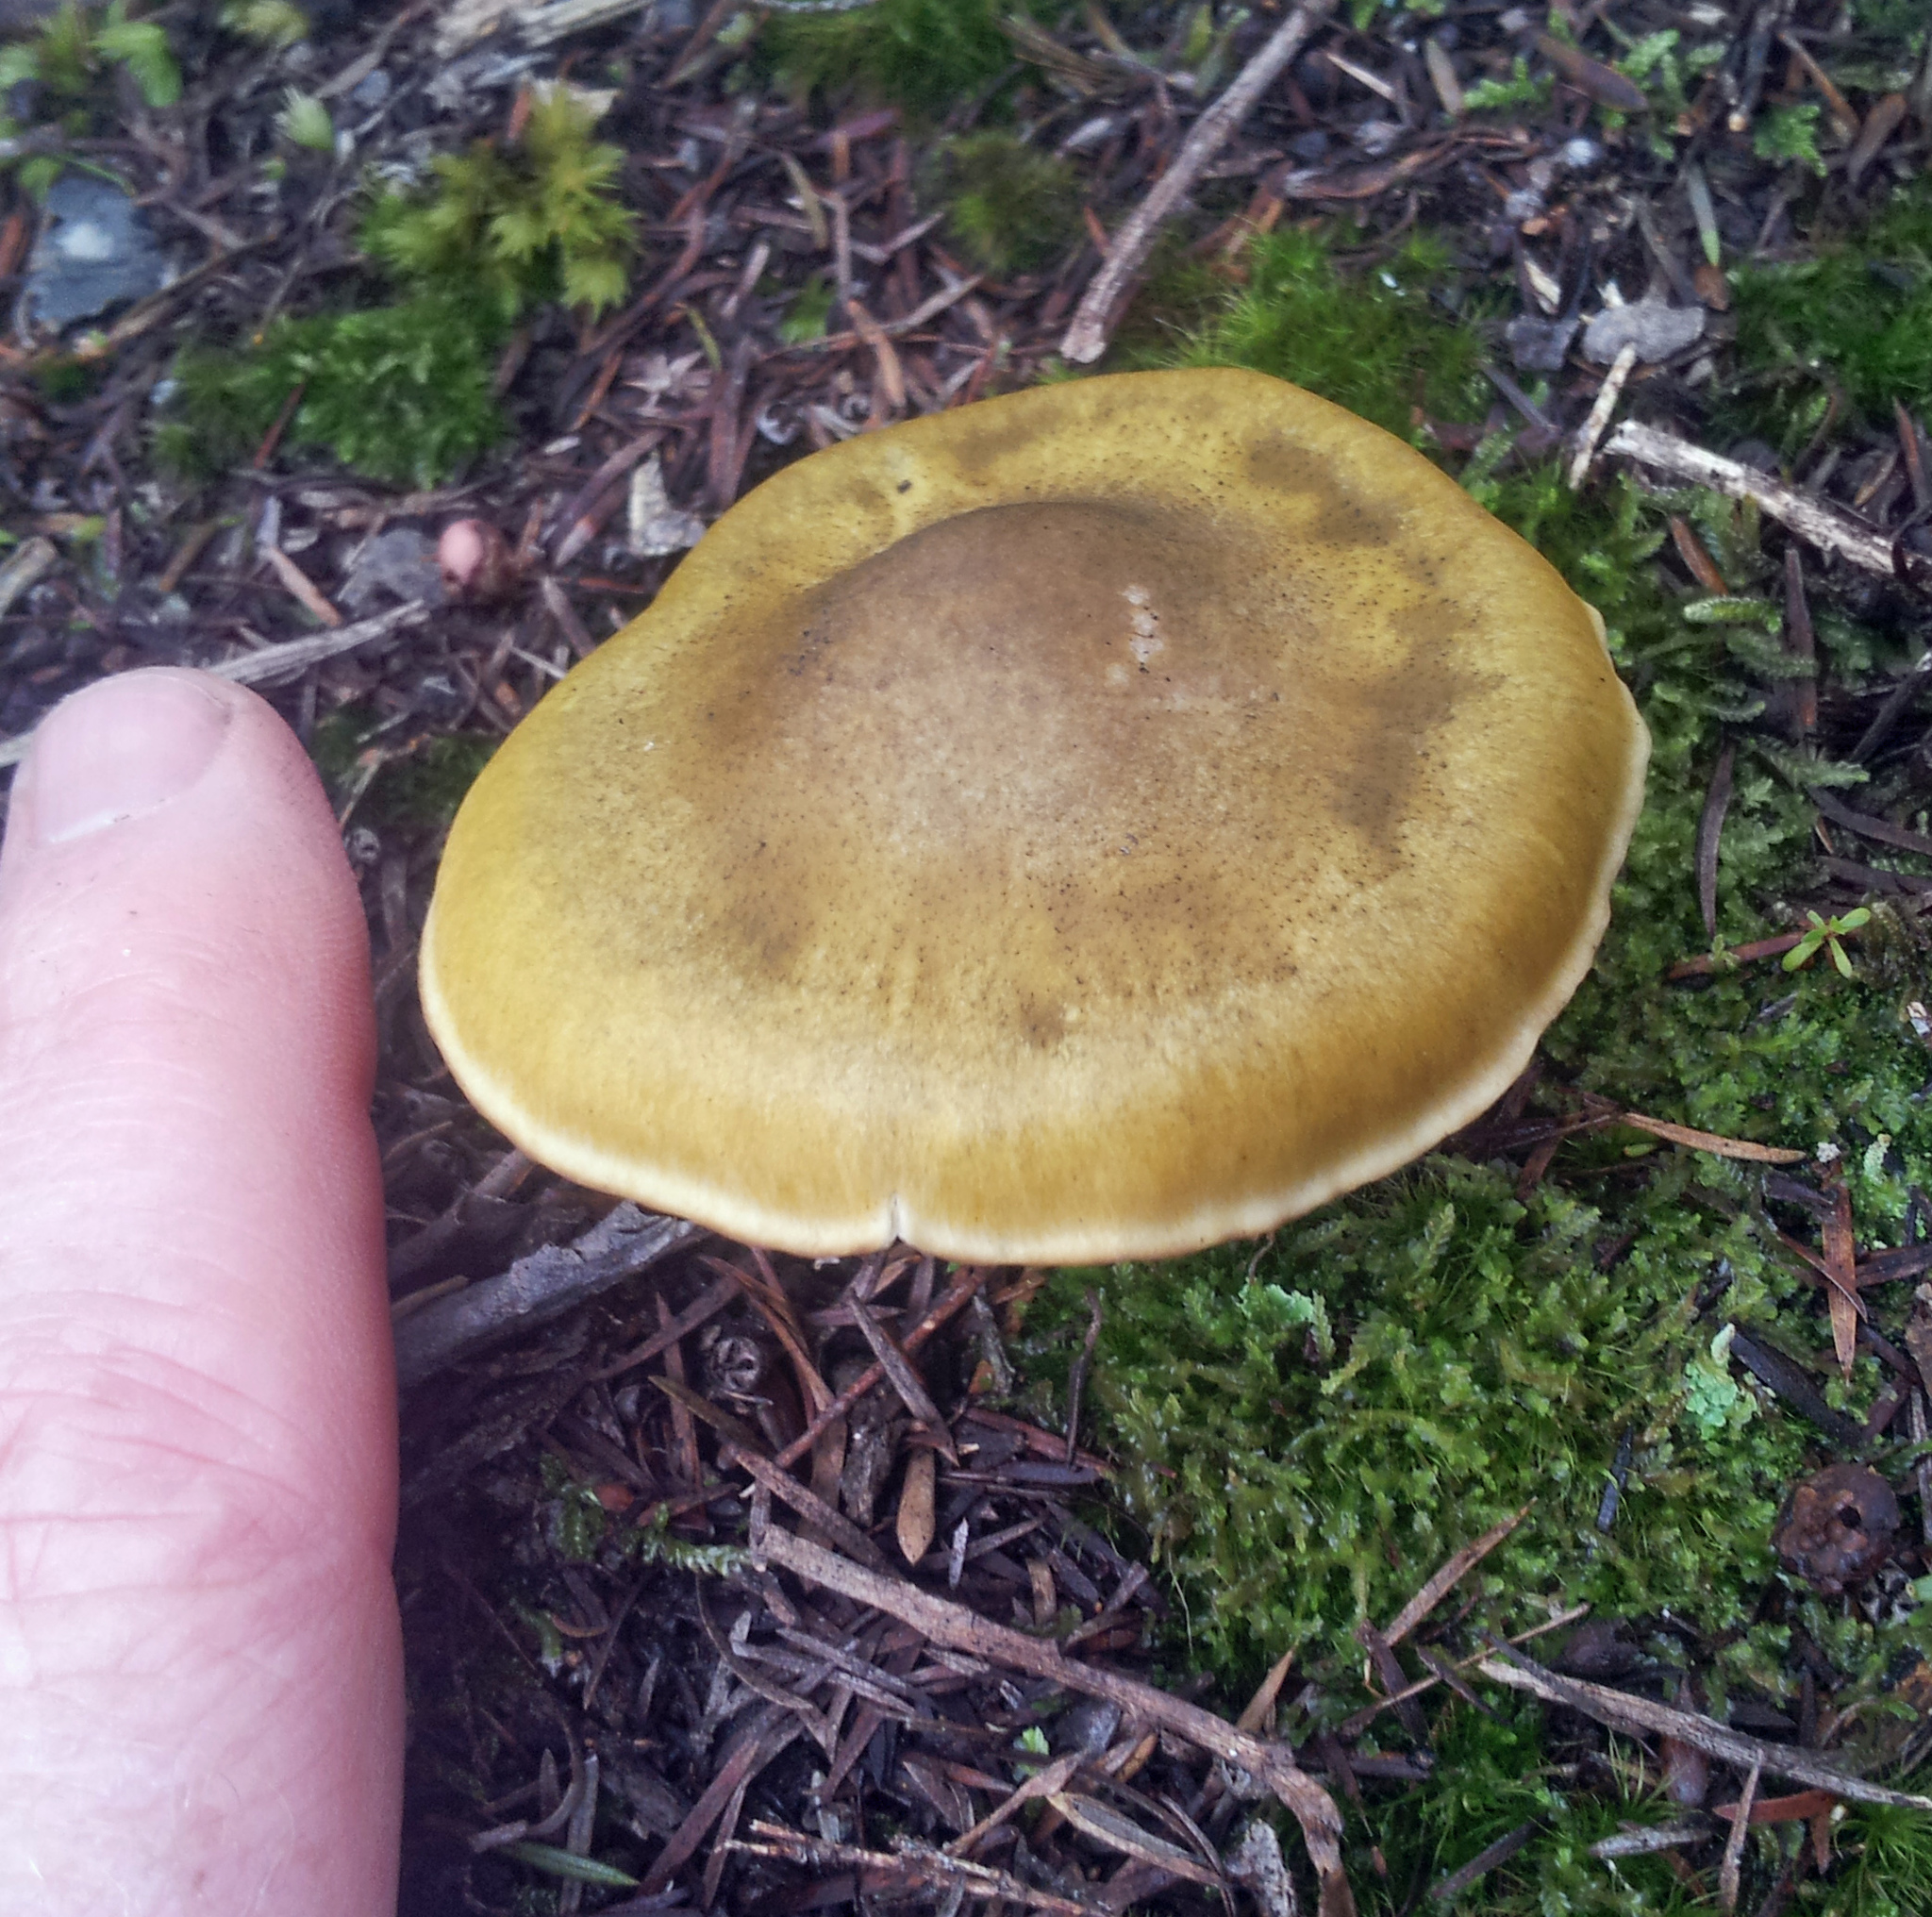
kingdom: Fungi
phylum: Basidiomycota
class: Agaricomycetes
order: Agaricales
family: Tricholomataceae
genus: Tricholoma
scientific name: Tricholoma viridiolivaceum
